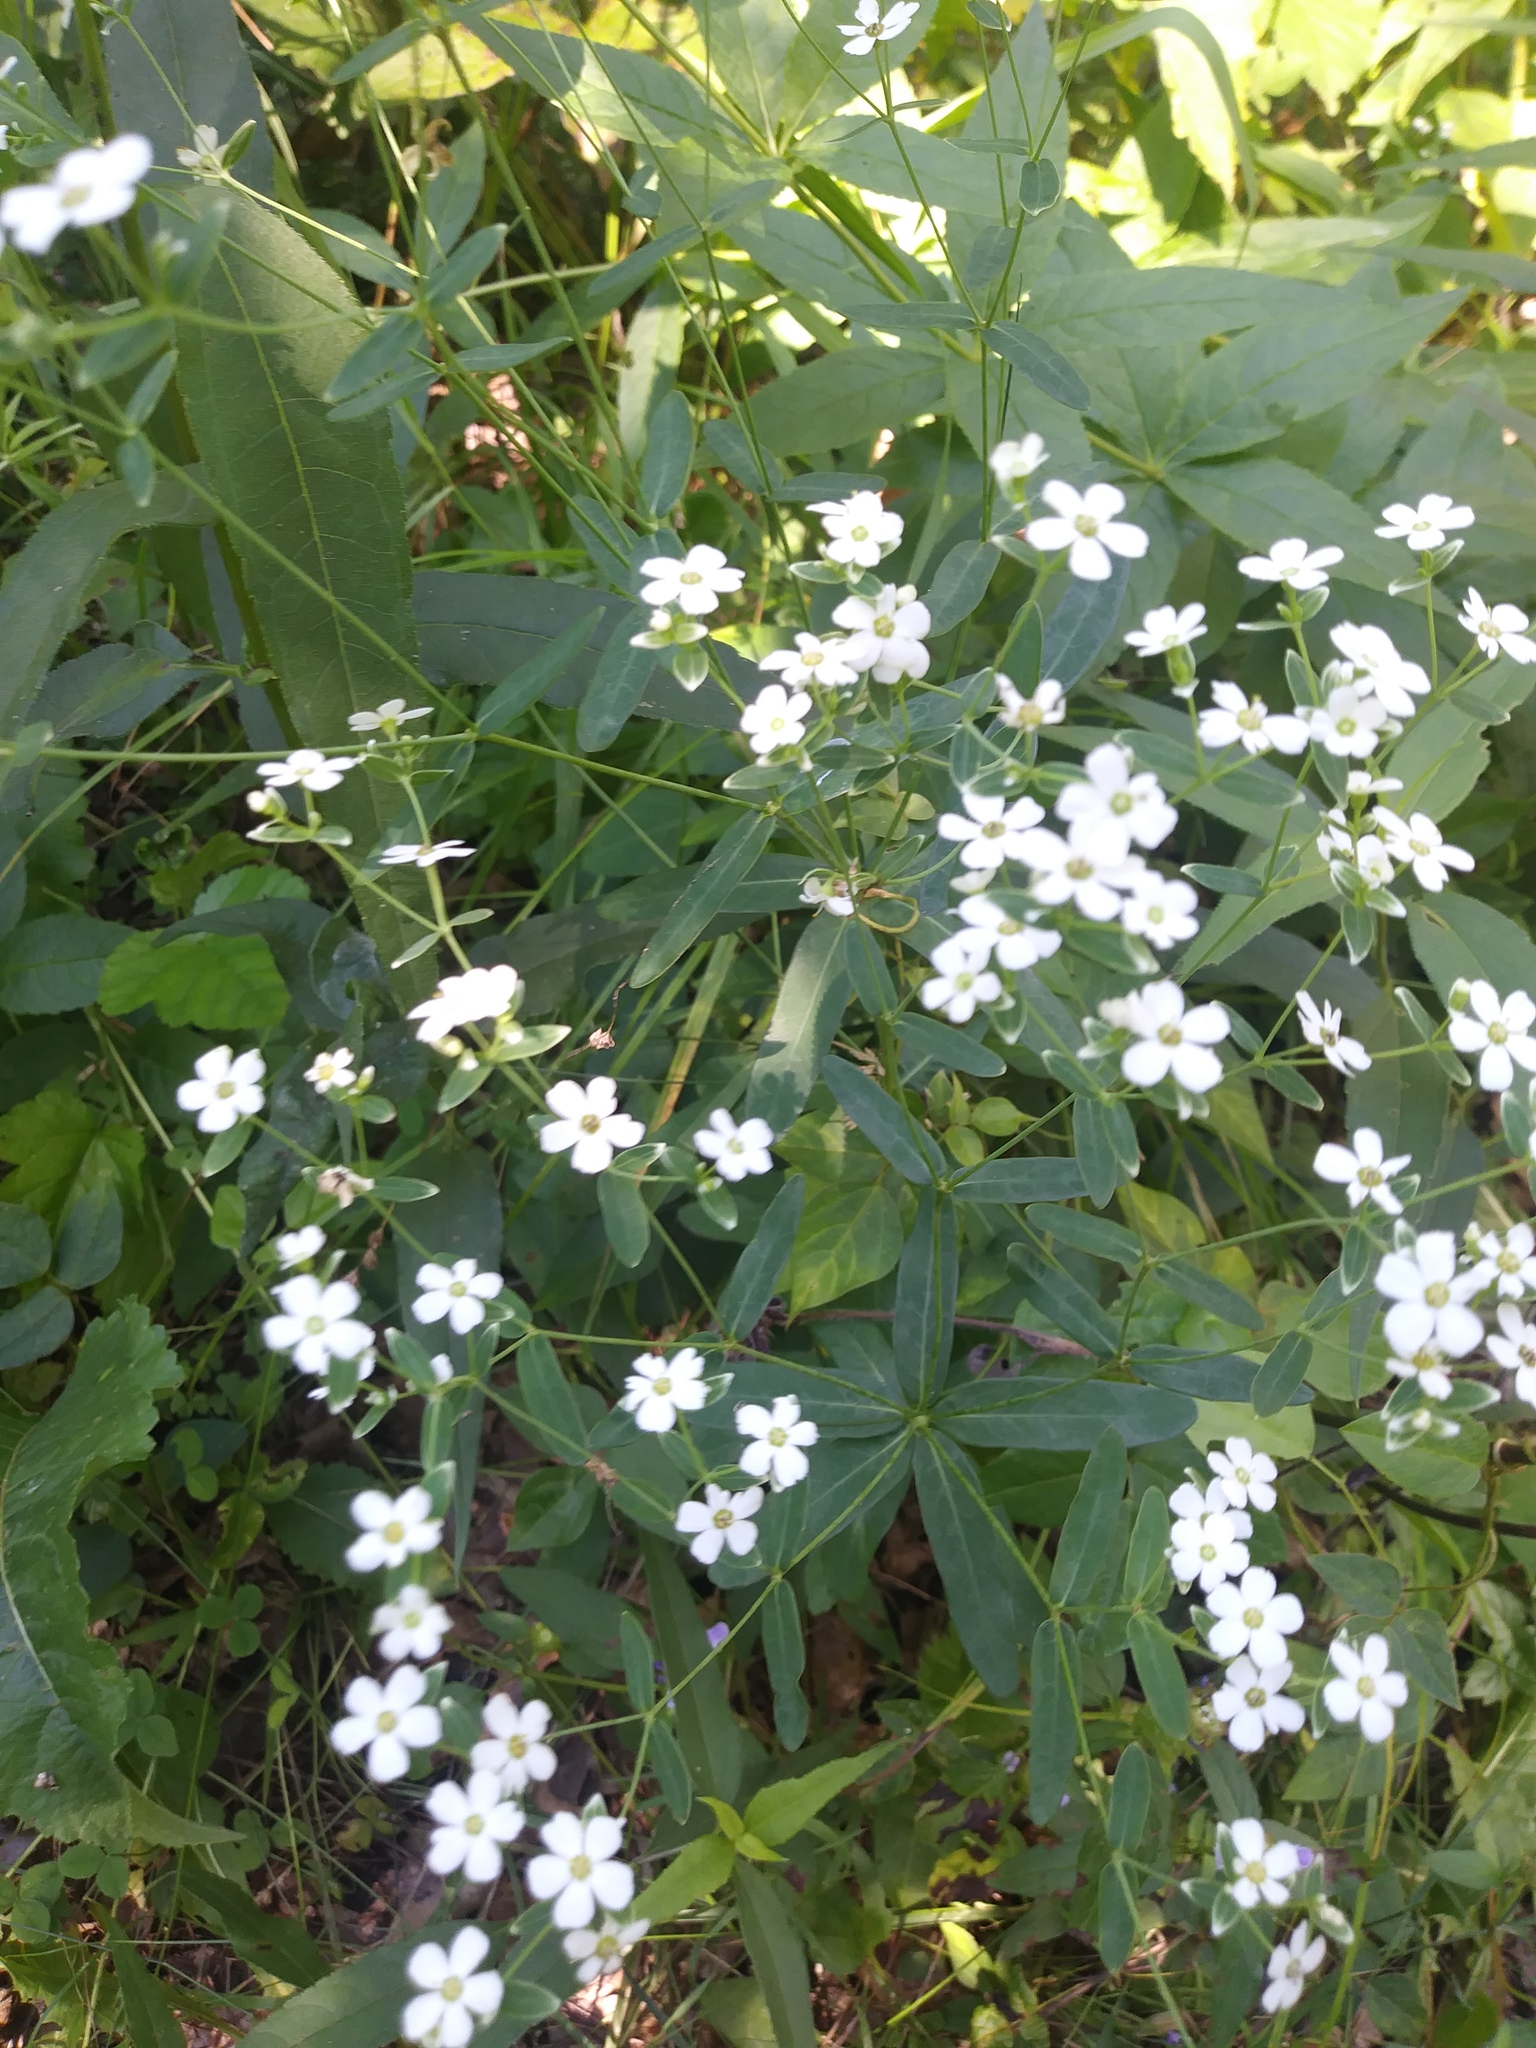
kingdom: Plantae
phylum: Tracheophyta
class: Magnoliopsida
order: Malpighiales
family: Euphorbiaceae
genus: Euphorbia
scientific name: Euphorbia corollata
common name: Flowering spurge
